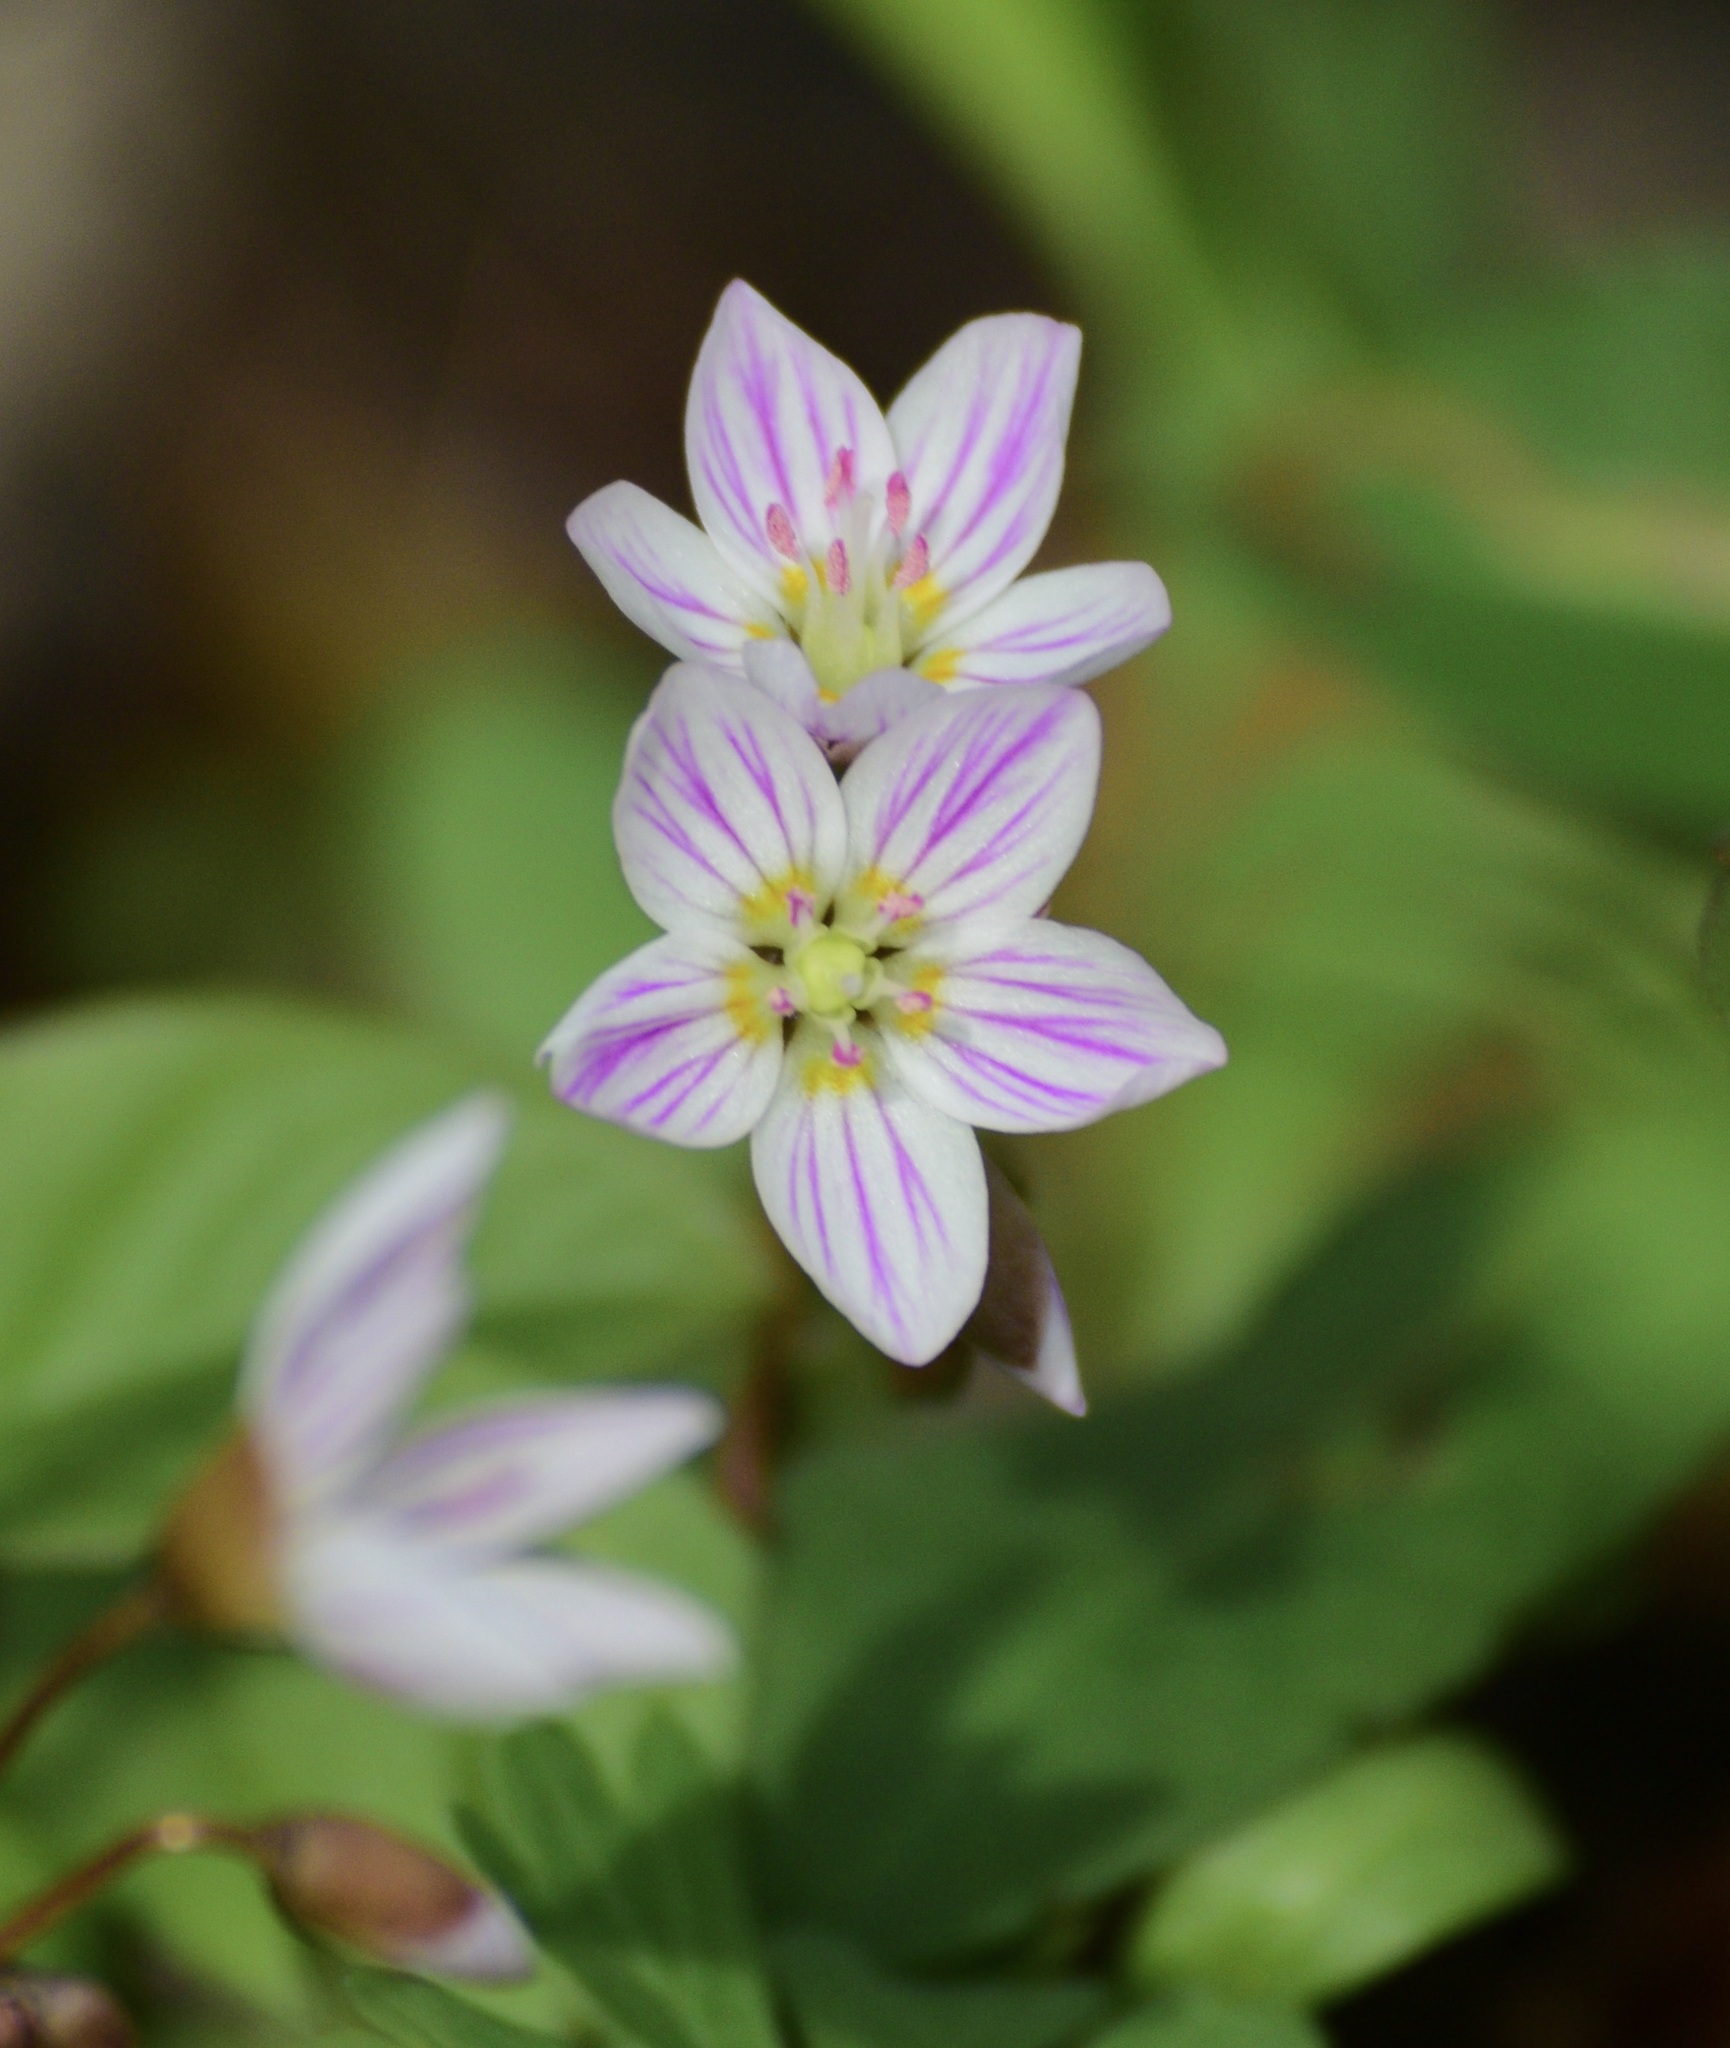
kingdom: Plantae
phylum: Tracheophyta
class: Magnoliopsida
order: Caryophyllales
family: Montiaceae
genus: Claytonia
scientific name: Claytonia
